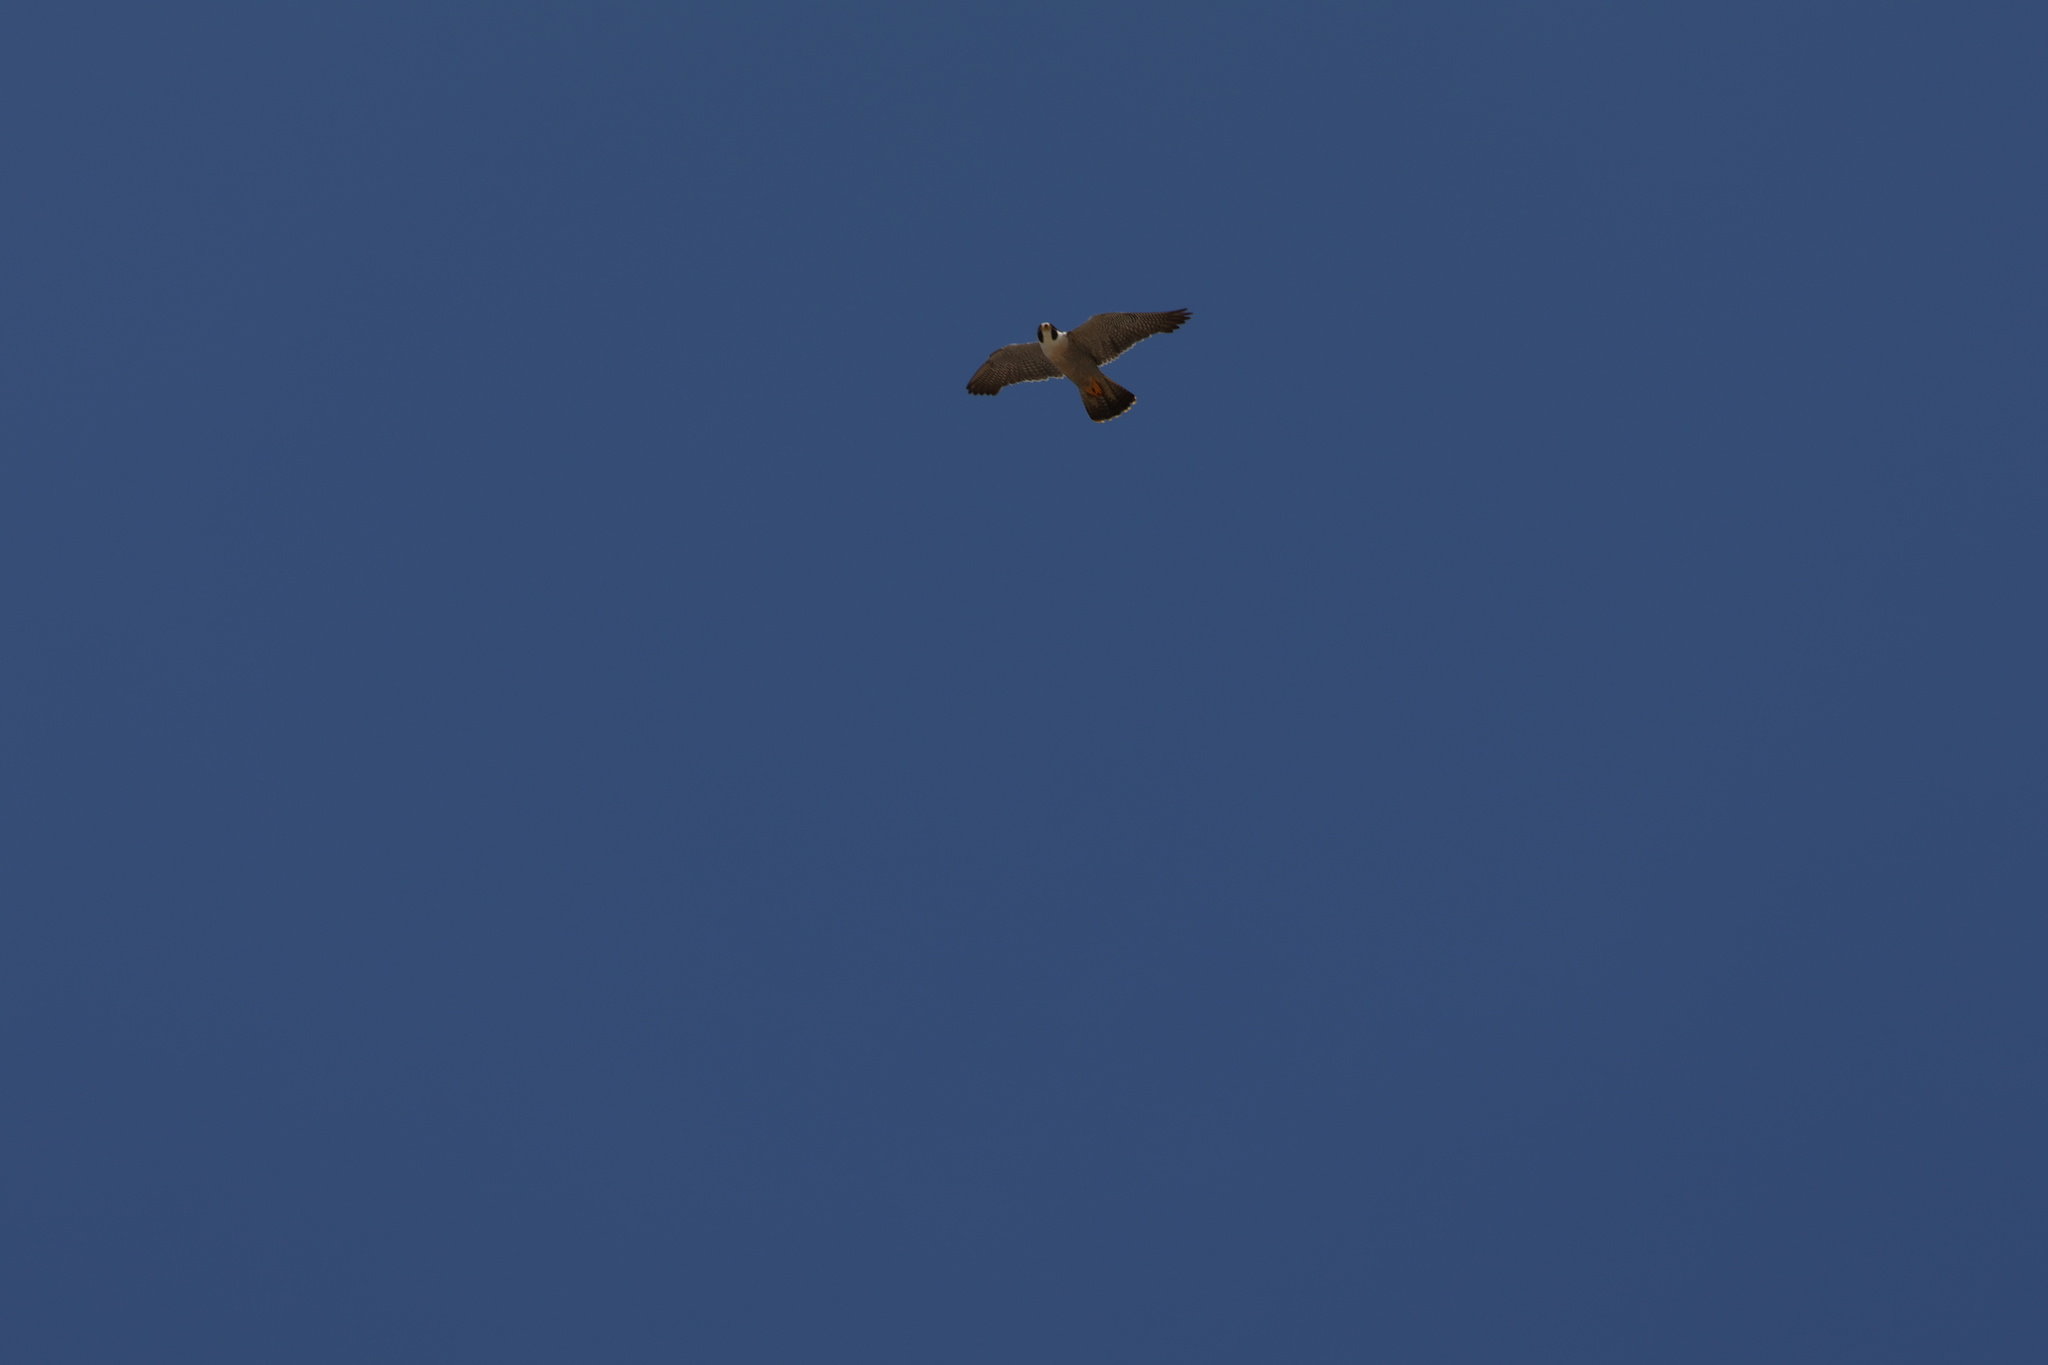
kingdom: Animalia
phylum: Chordata
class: Aves
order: Falconiformes
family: Falconidae
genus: Falco
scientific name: Falco peregrinus
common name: Peregrine falcon
